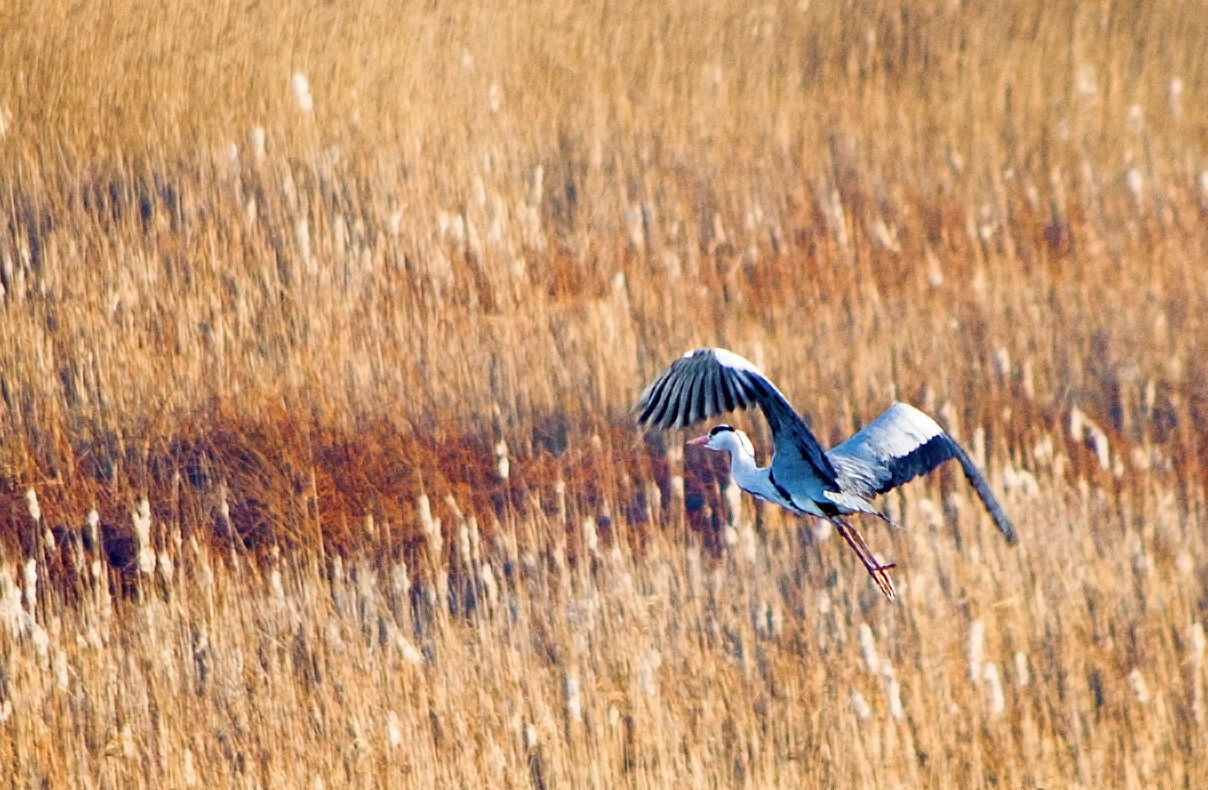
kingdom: Animalia
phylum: Chordata
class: Aves
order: Pelecaniformes
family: Ardeidae
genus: Ardea
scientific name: Ardea cinerea
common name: Grey heron
